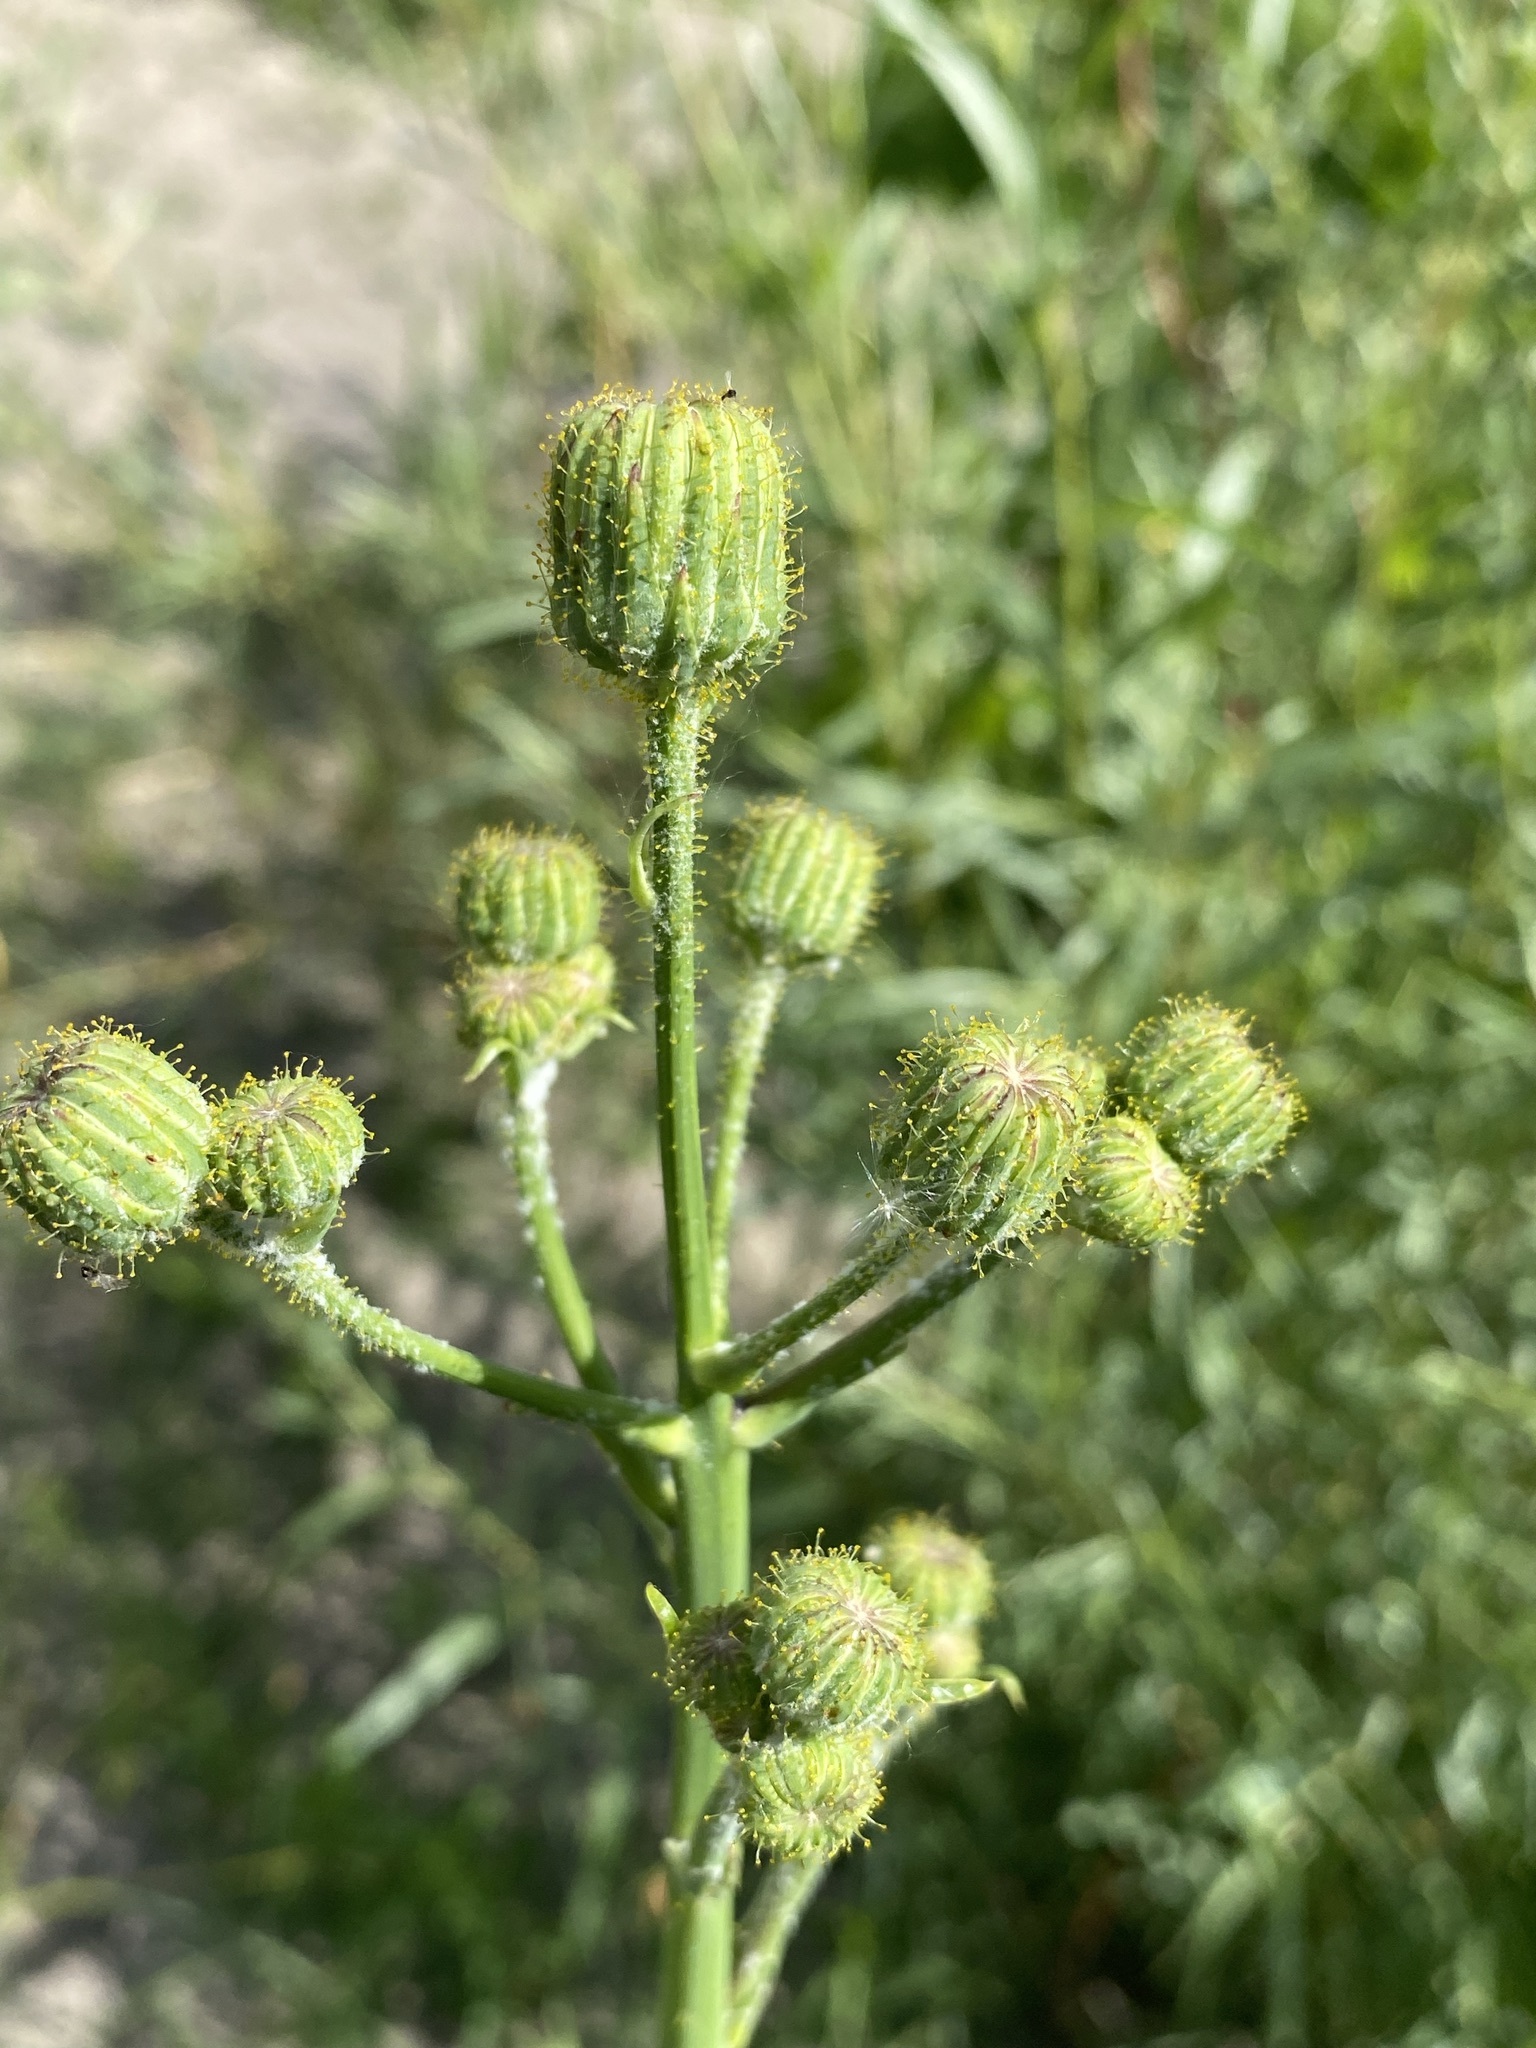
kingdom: Plantae
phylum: Tracheophyta
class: Magnoliopsida
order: Asterales
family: Asteraceae
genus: Sonchus
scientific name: Sonchus arvensis
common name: Perennial sow-thistle
